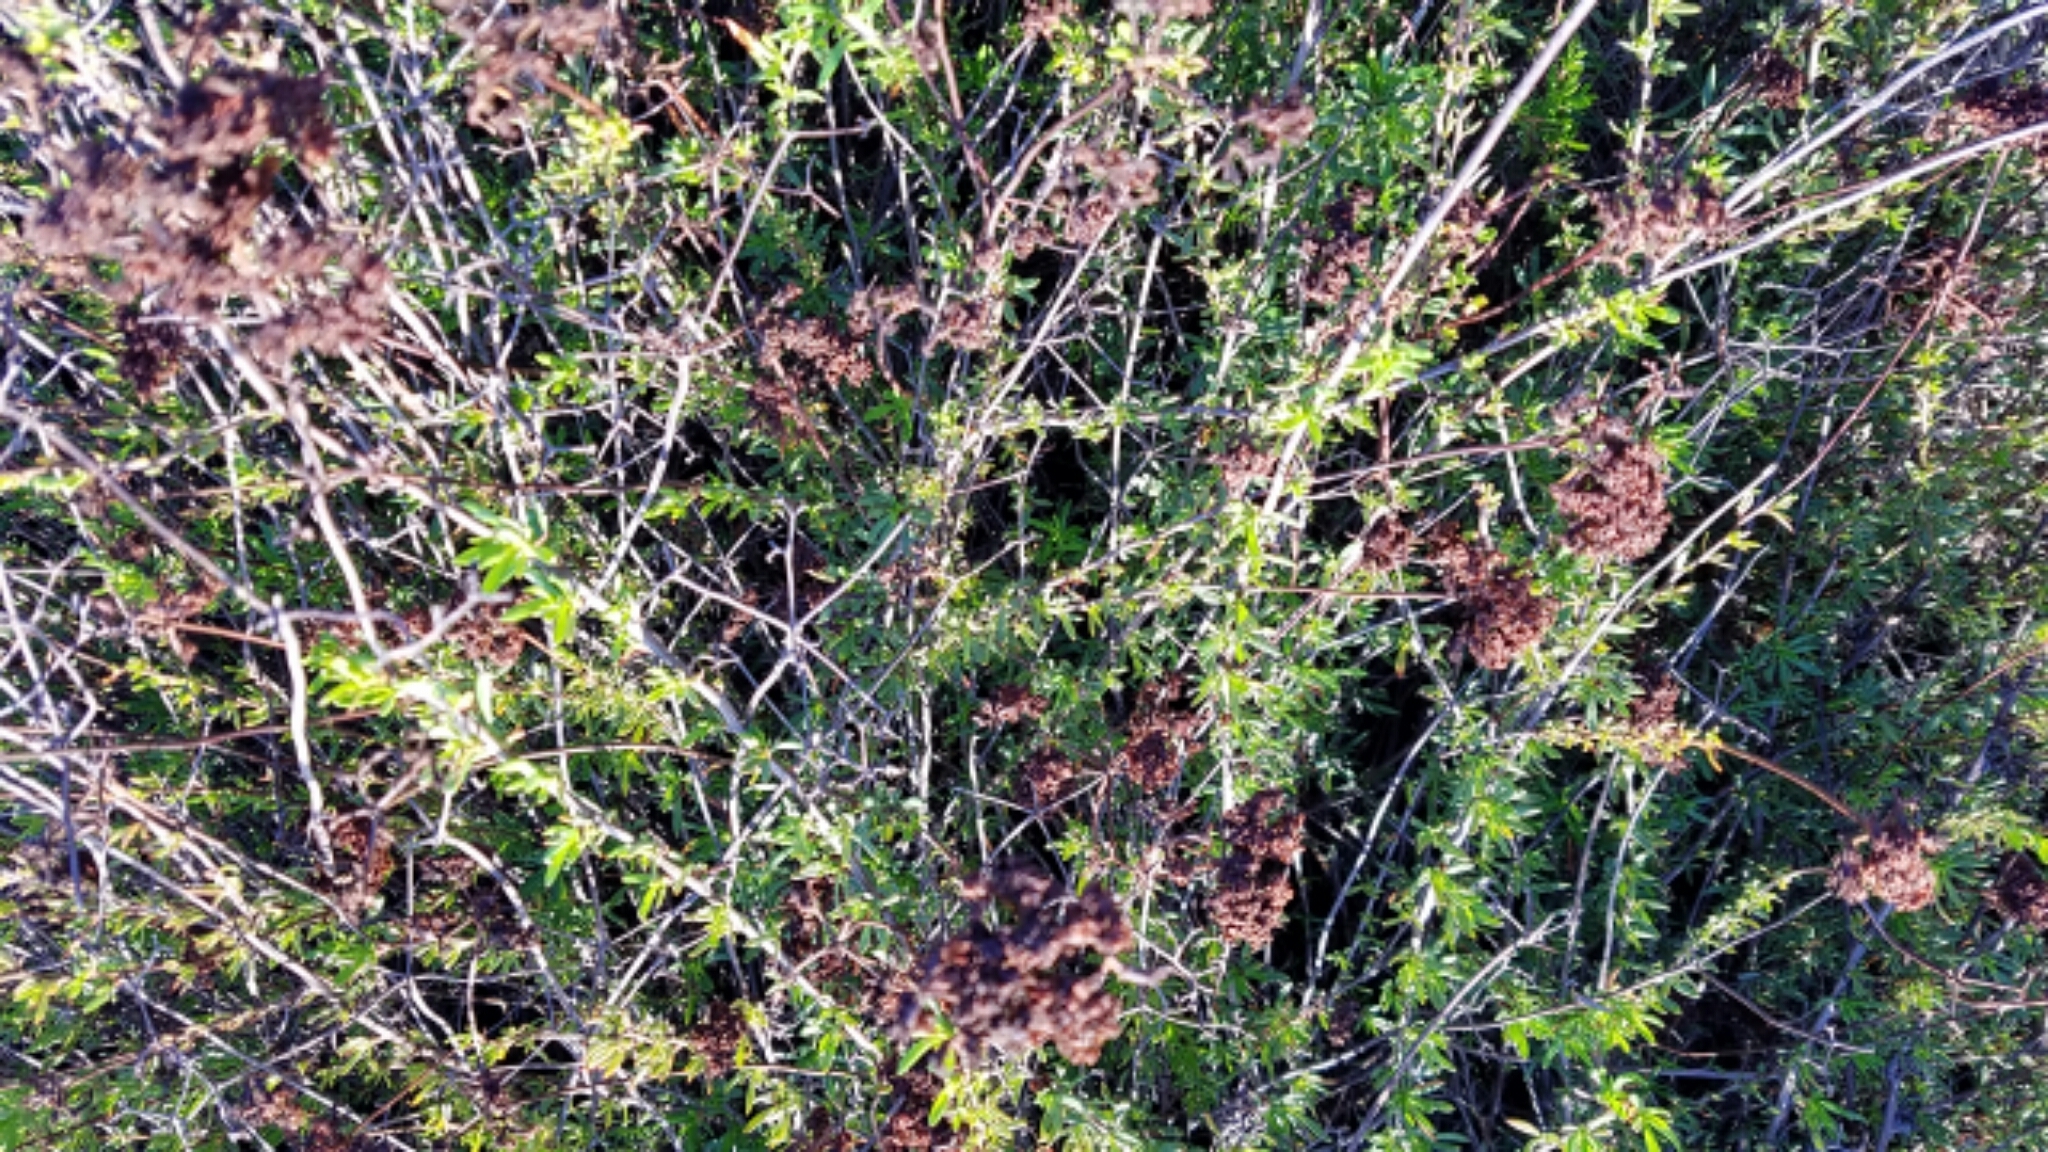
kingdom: Plantae
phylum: Tracheophyta
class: Magnoliopsida
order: Caryophyllales
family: Polygonaceae
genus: Eriogonum
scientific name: Eriogonum fasciculatum
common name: California wild buckwheat
